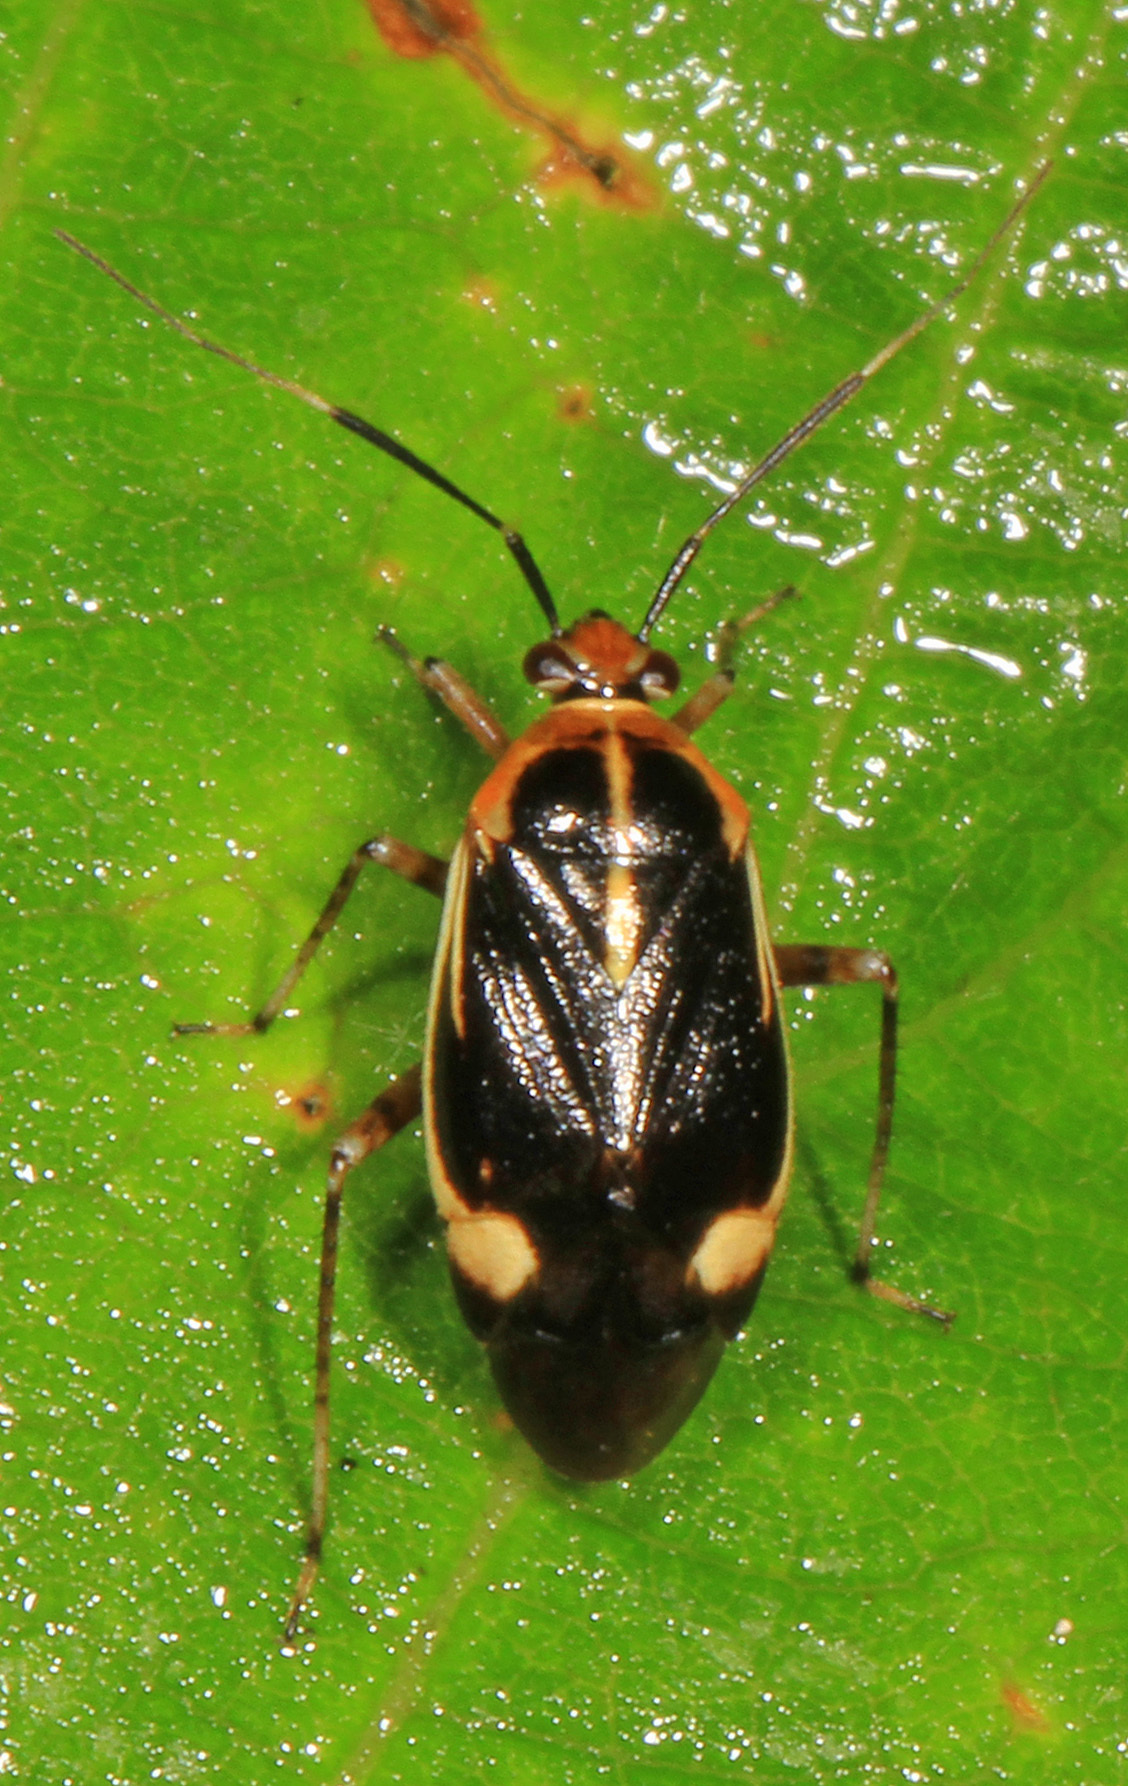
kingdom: Animalia
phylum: Arthropoda
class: Insecta
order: Hemiptera
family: Miridae
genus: Metriorrhynchomiris
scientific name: Metriorrhynchomiris dislocatus
